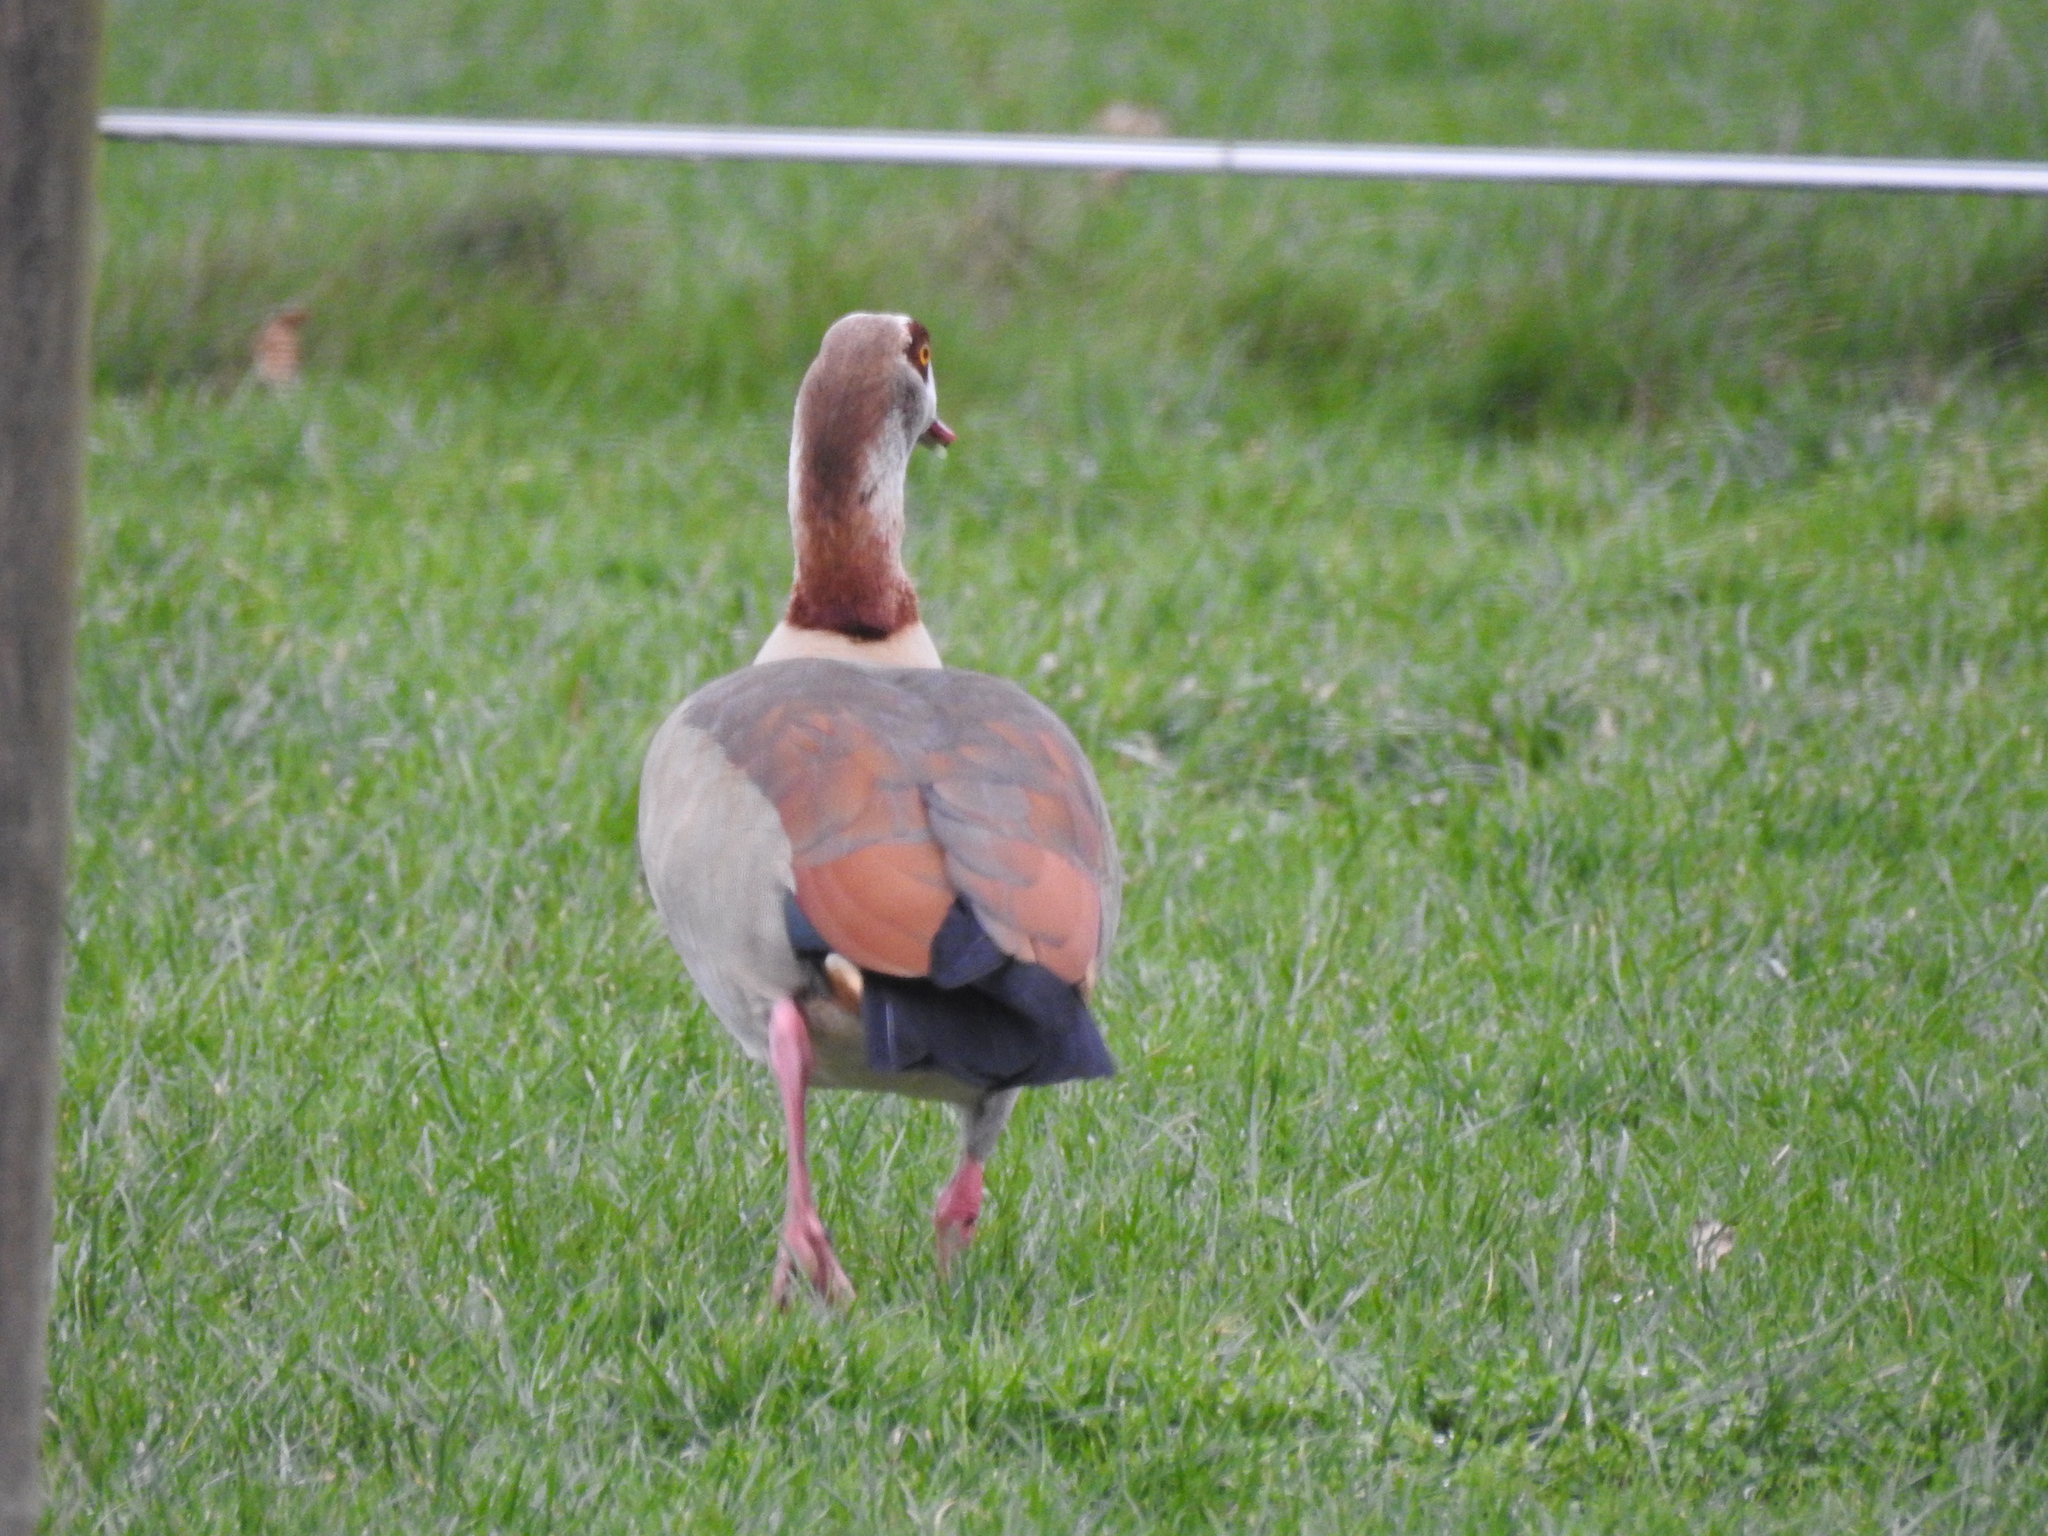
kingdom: Animalia
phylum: Chordata
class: Aves
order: Anseriformes
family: Anatidae
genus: Alopochen
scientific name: Alopochen aegyptiaca
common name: Egyptian goose
